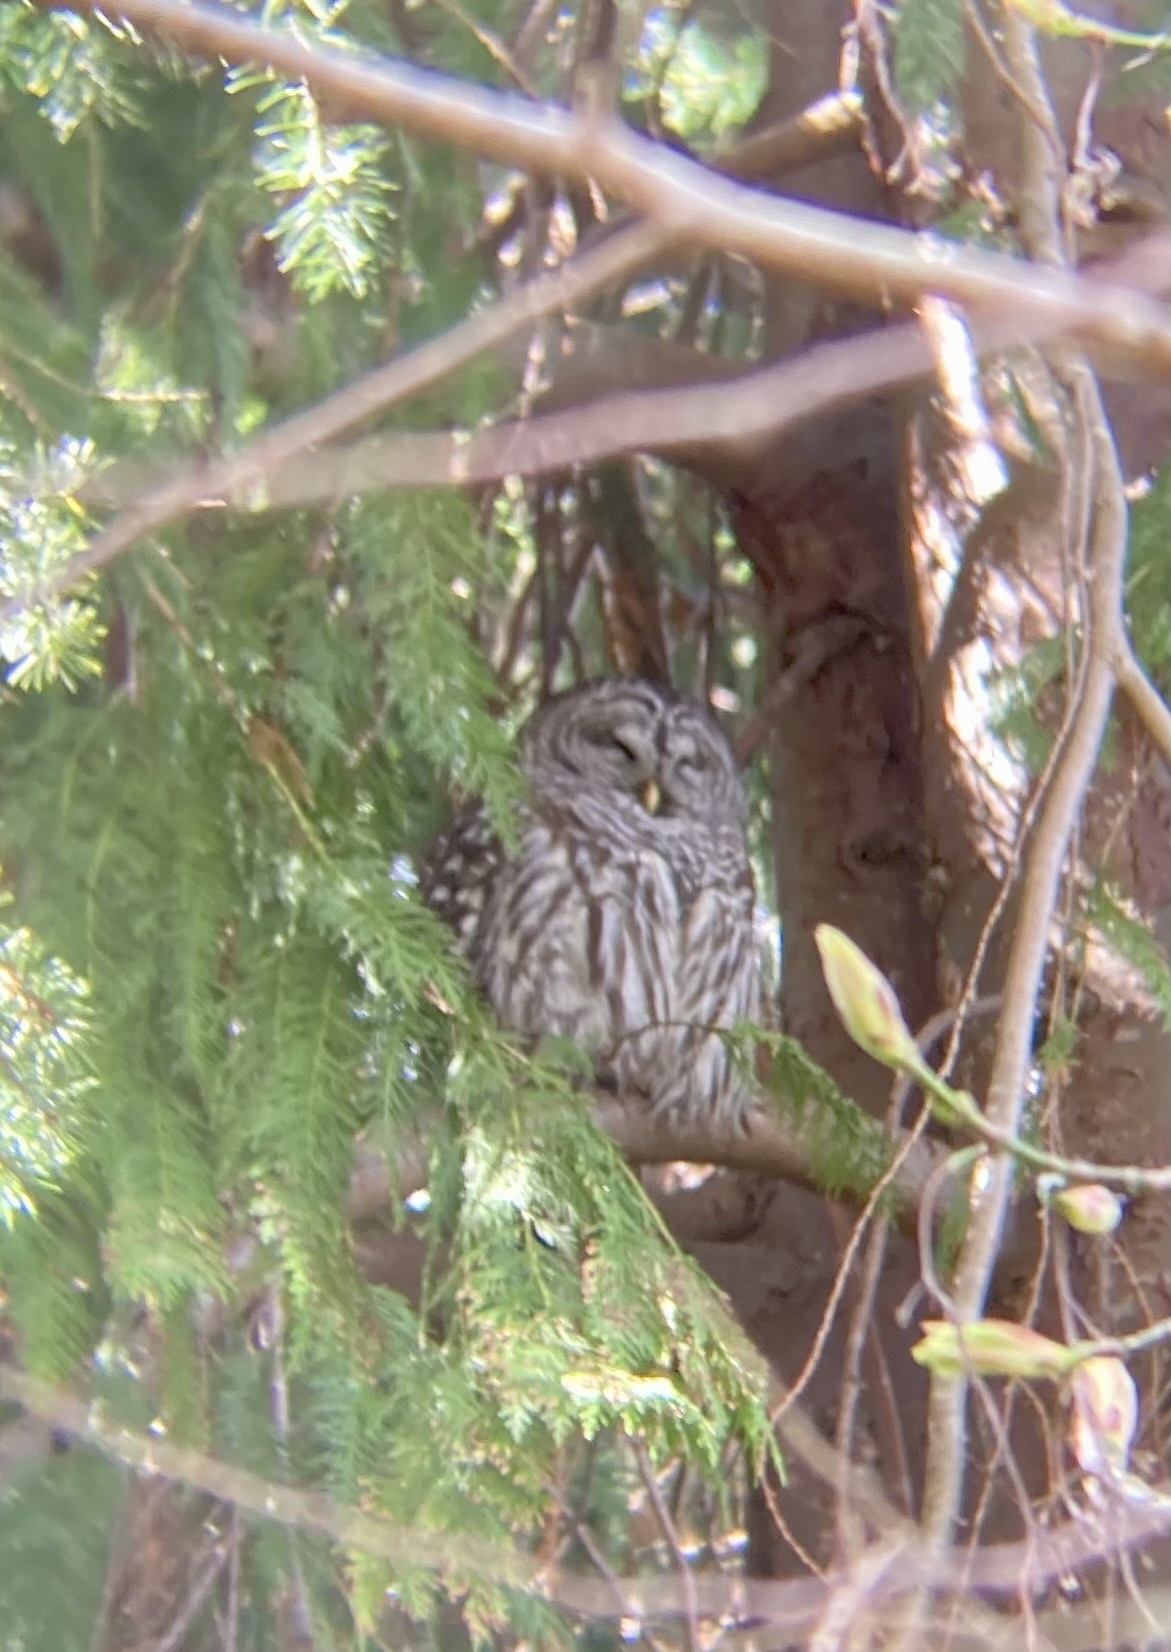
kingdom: Animalia
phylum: Chordata
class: Aves
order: Strigiformes
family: Strigidae
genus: Strix
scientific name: Strix varia
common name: Barred owl
